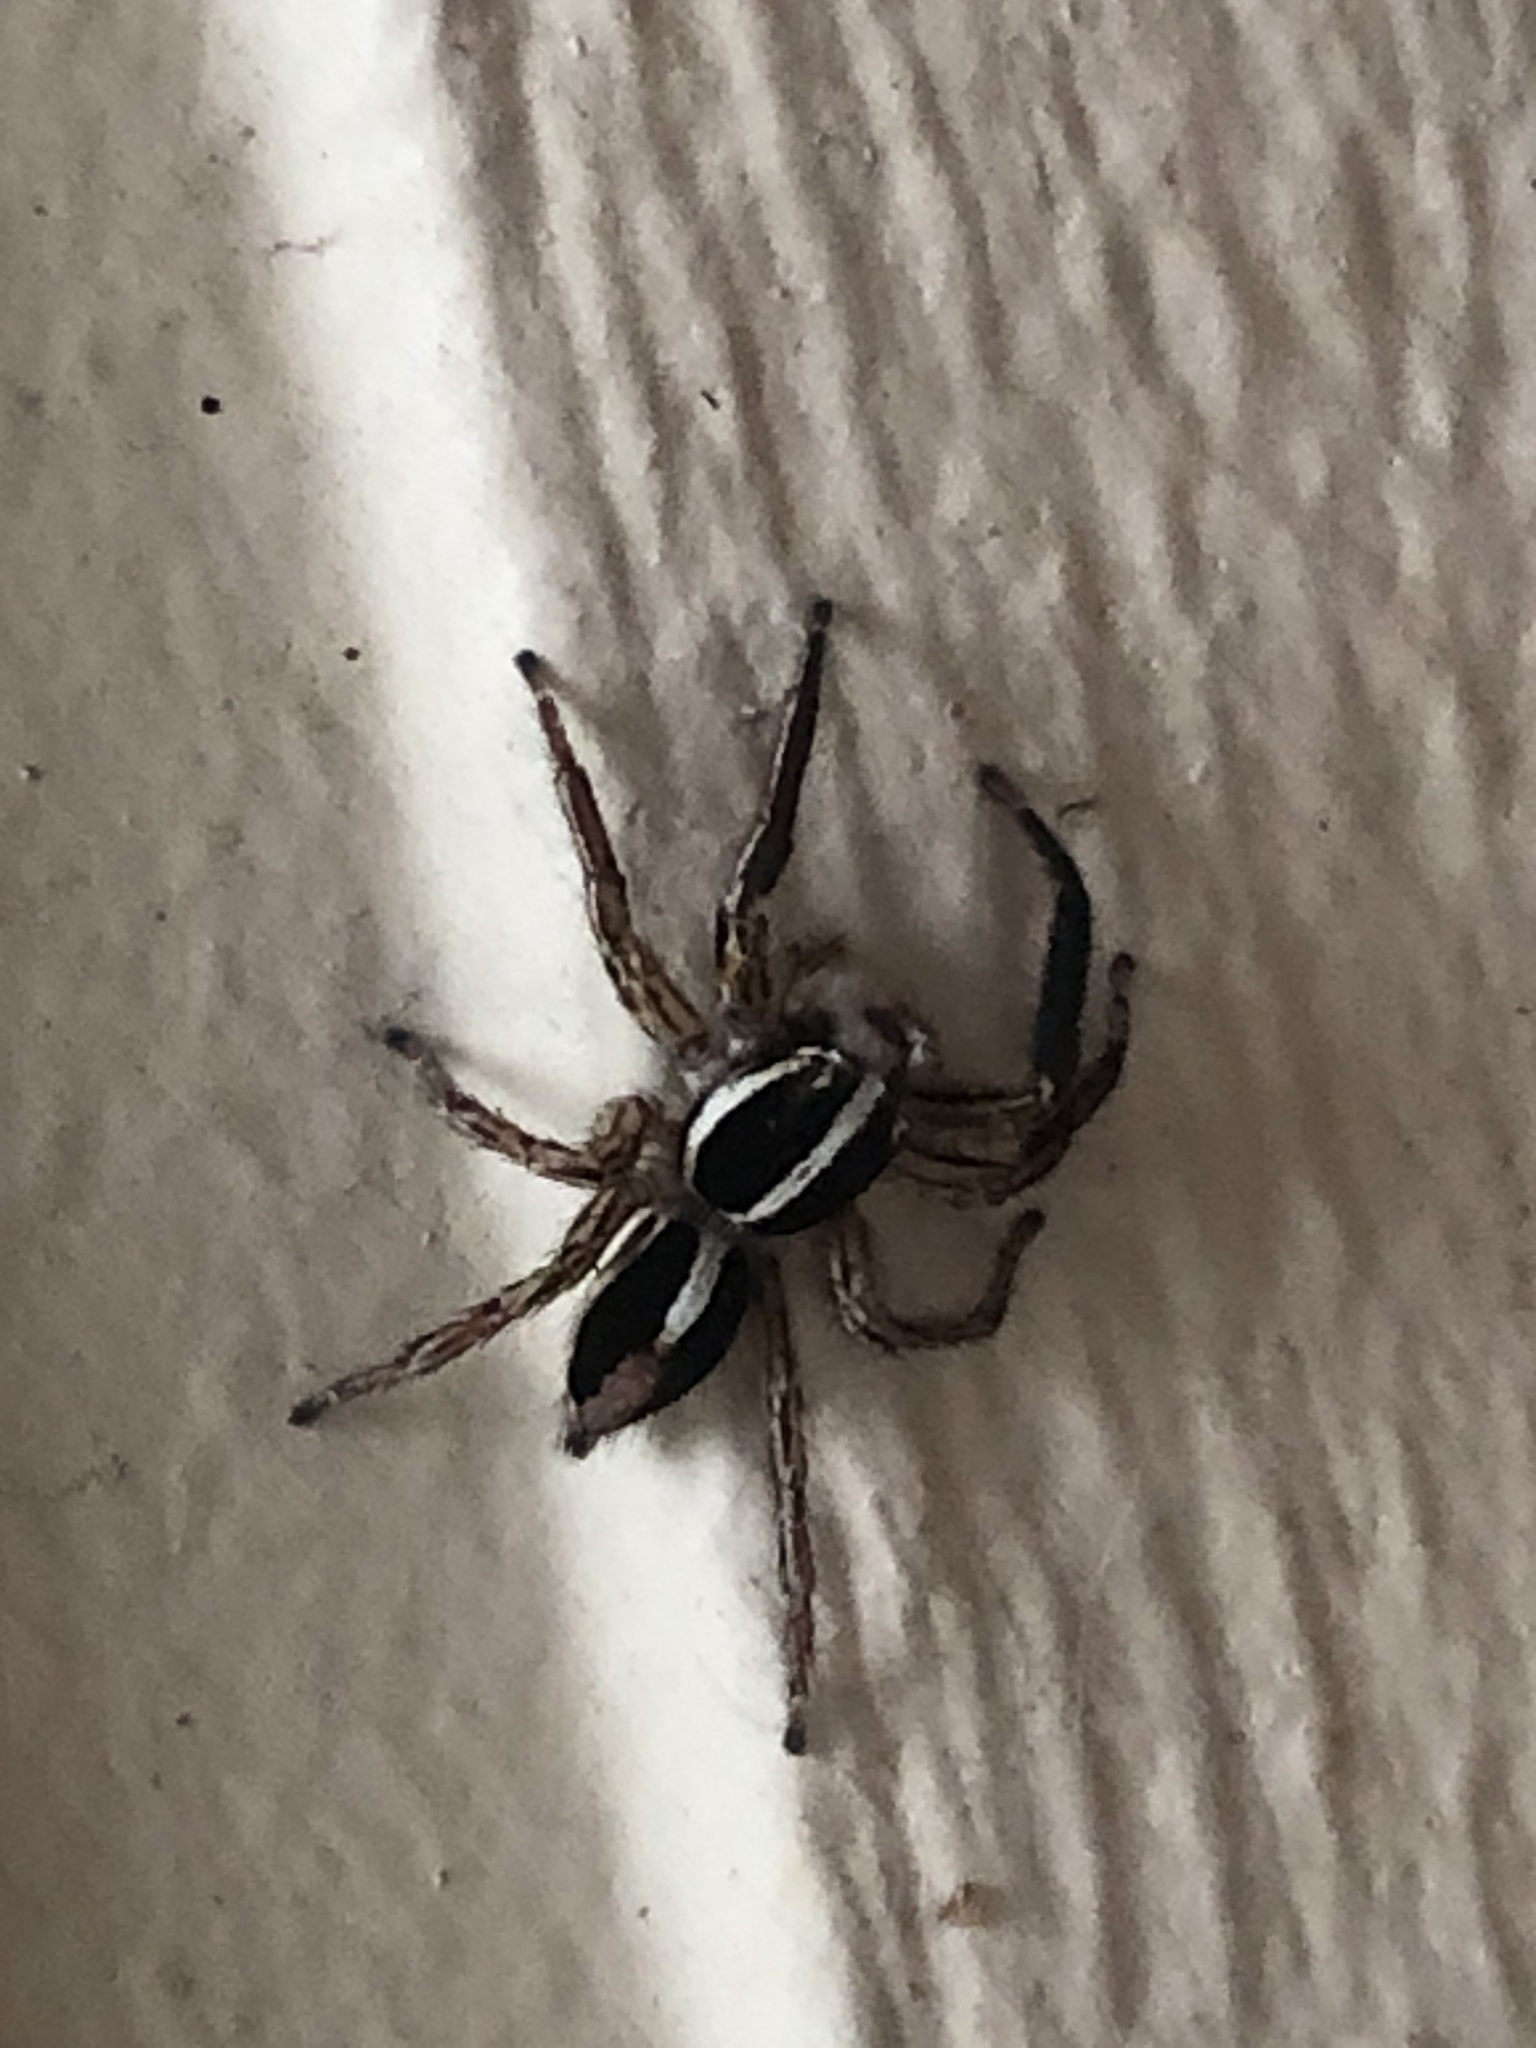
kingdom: Animalia
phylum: Arthropoda
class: Arachnida
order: Araneae
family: Salticidae
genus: Plexippus
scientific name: Plexippus paykulli
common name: Pantropical jumper
